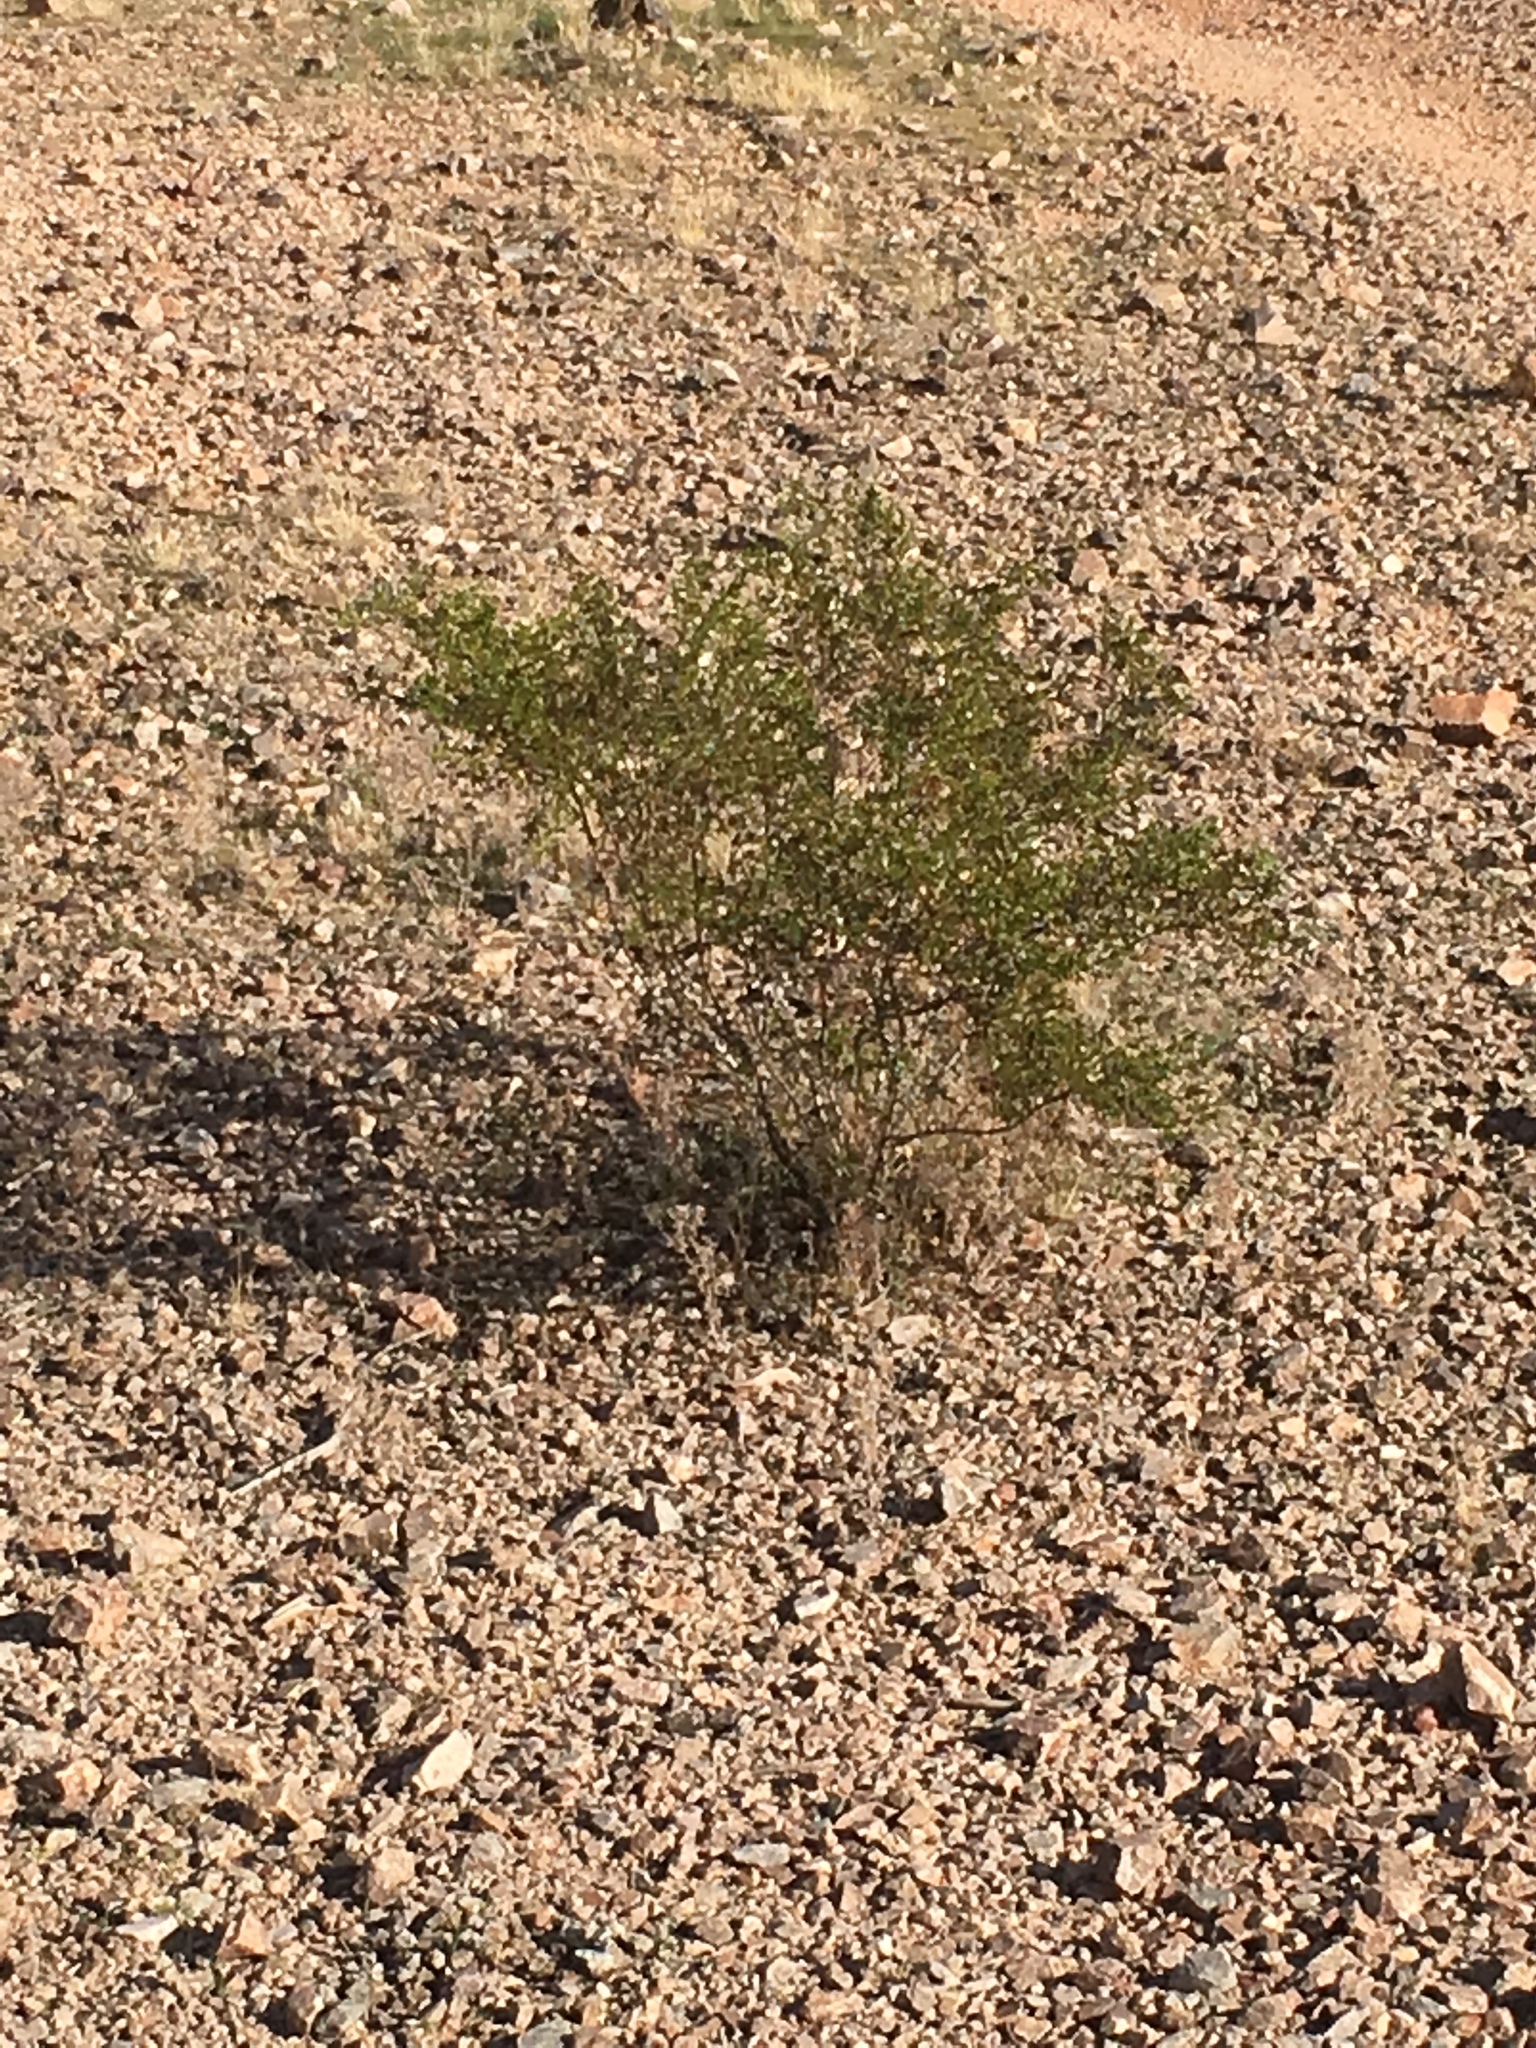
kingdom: Plantae
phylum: Tracheophyta
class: Magnoliopsida
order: Zygophyllales
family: Zygophyllaceae
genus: Larrea
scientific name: Larrea tridentata
